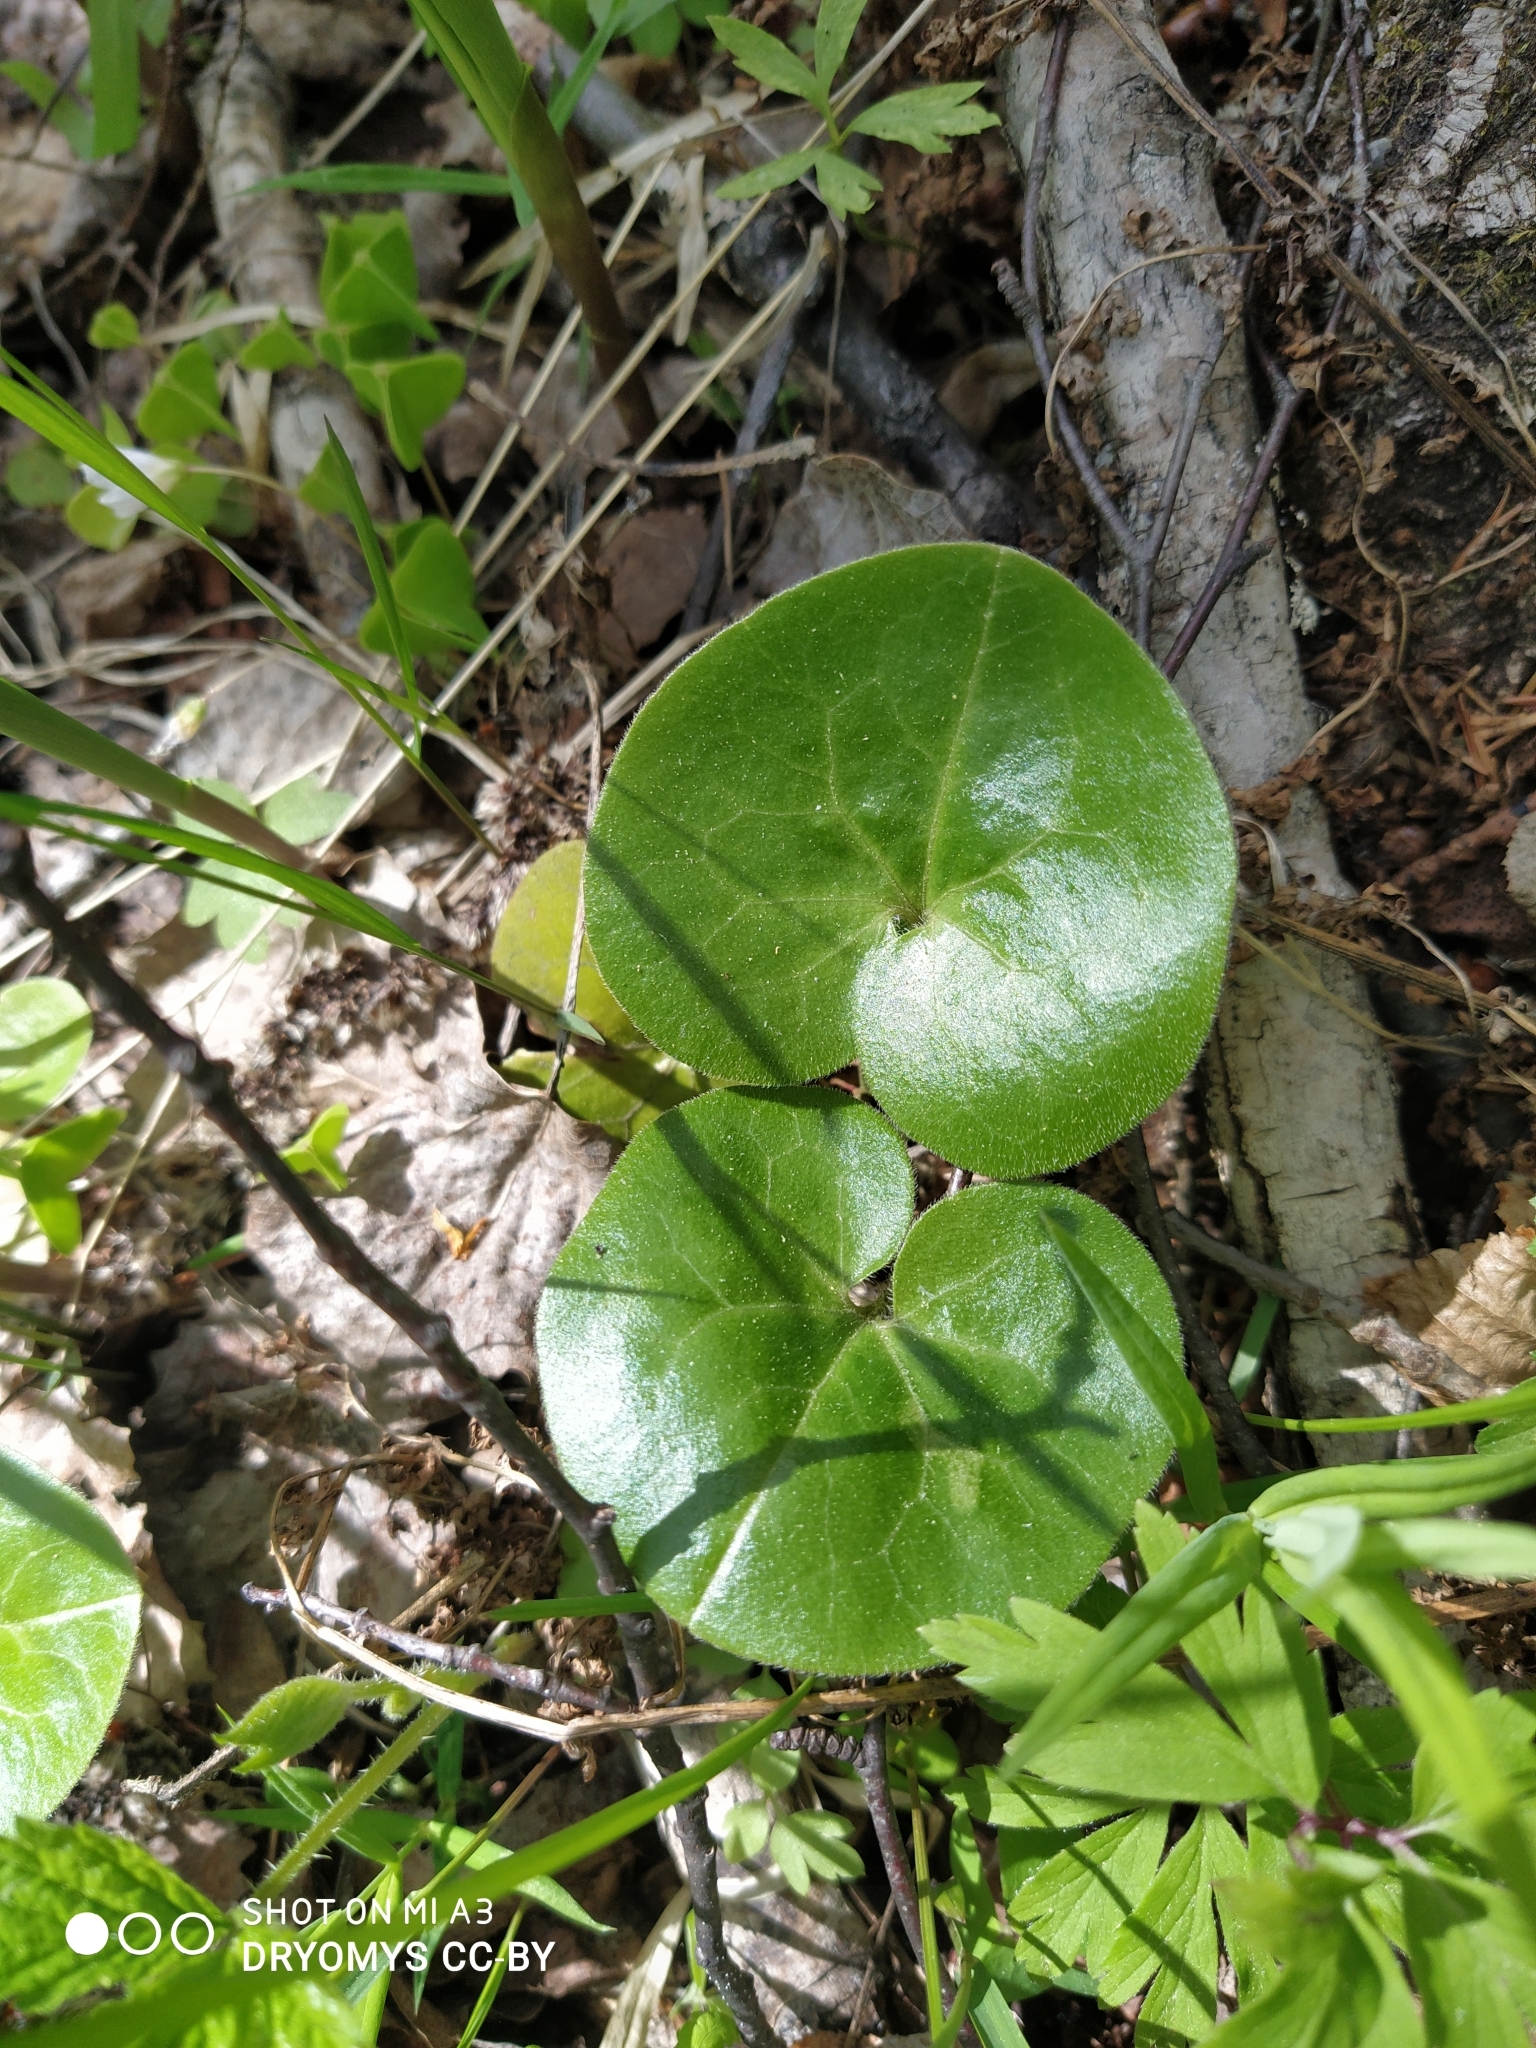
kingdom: Plantae
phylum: Tracheophyta
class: Magnoliopsida
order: Piperales
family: Aristolochiaceae
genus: Asarum
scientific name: Asarum europaeum
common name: Asarabacca
